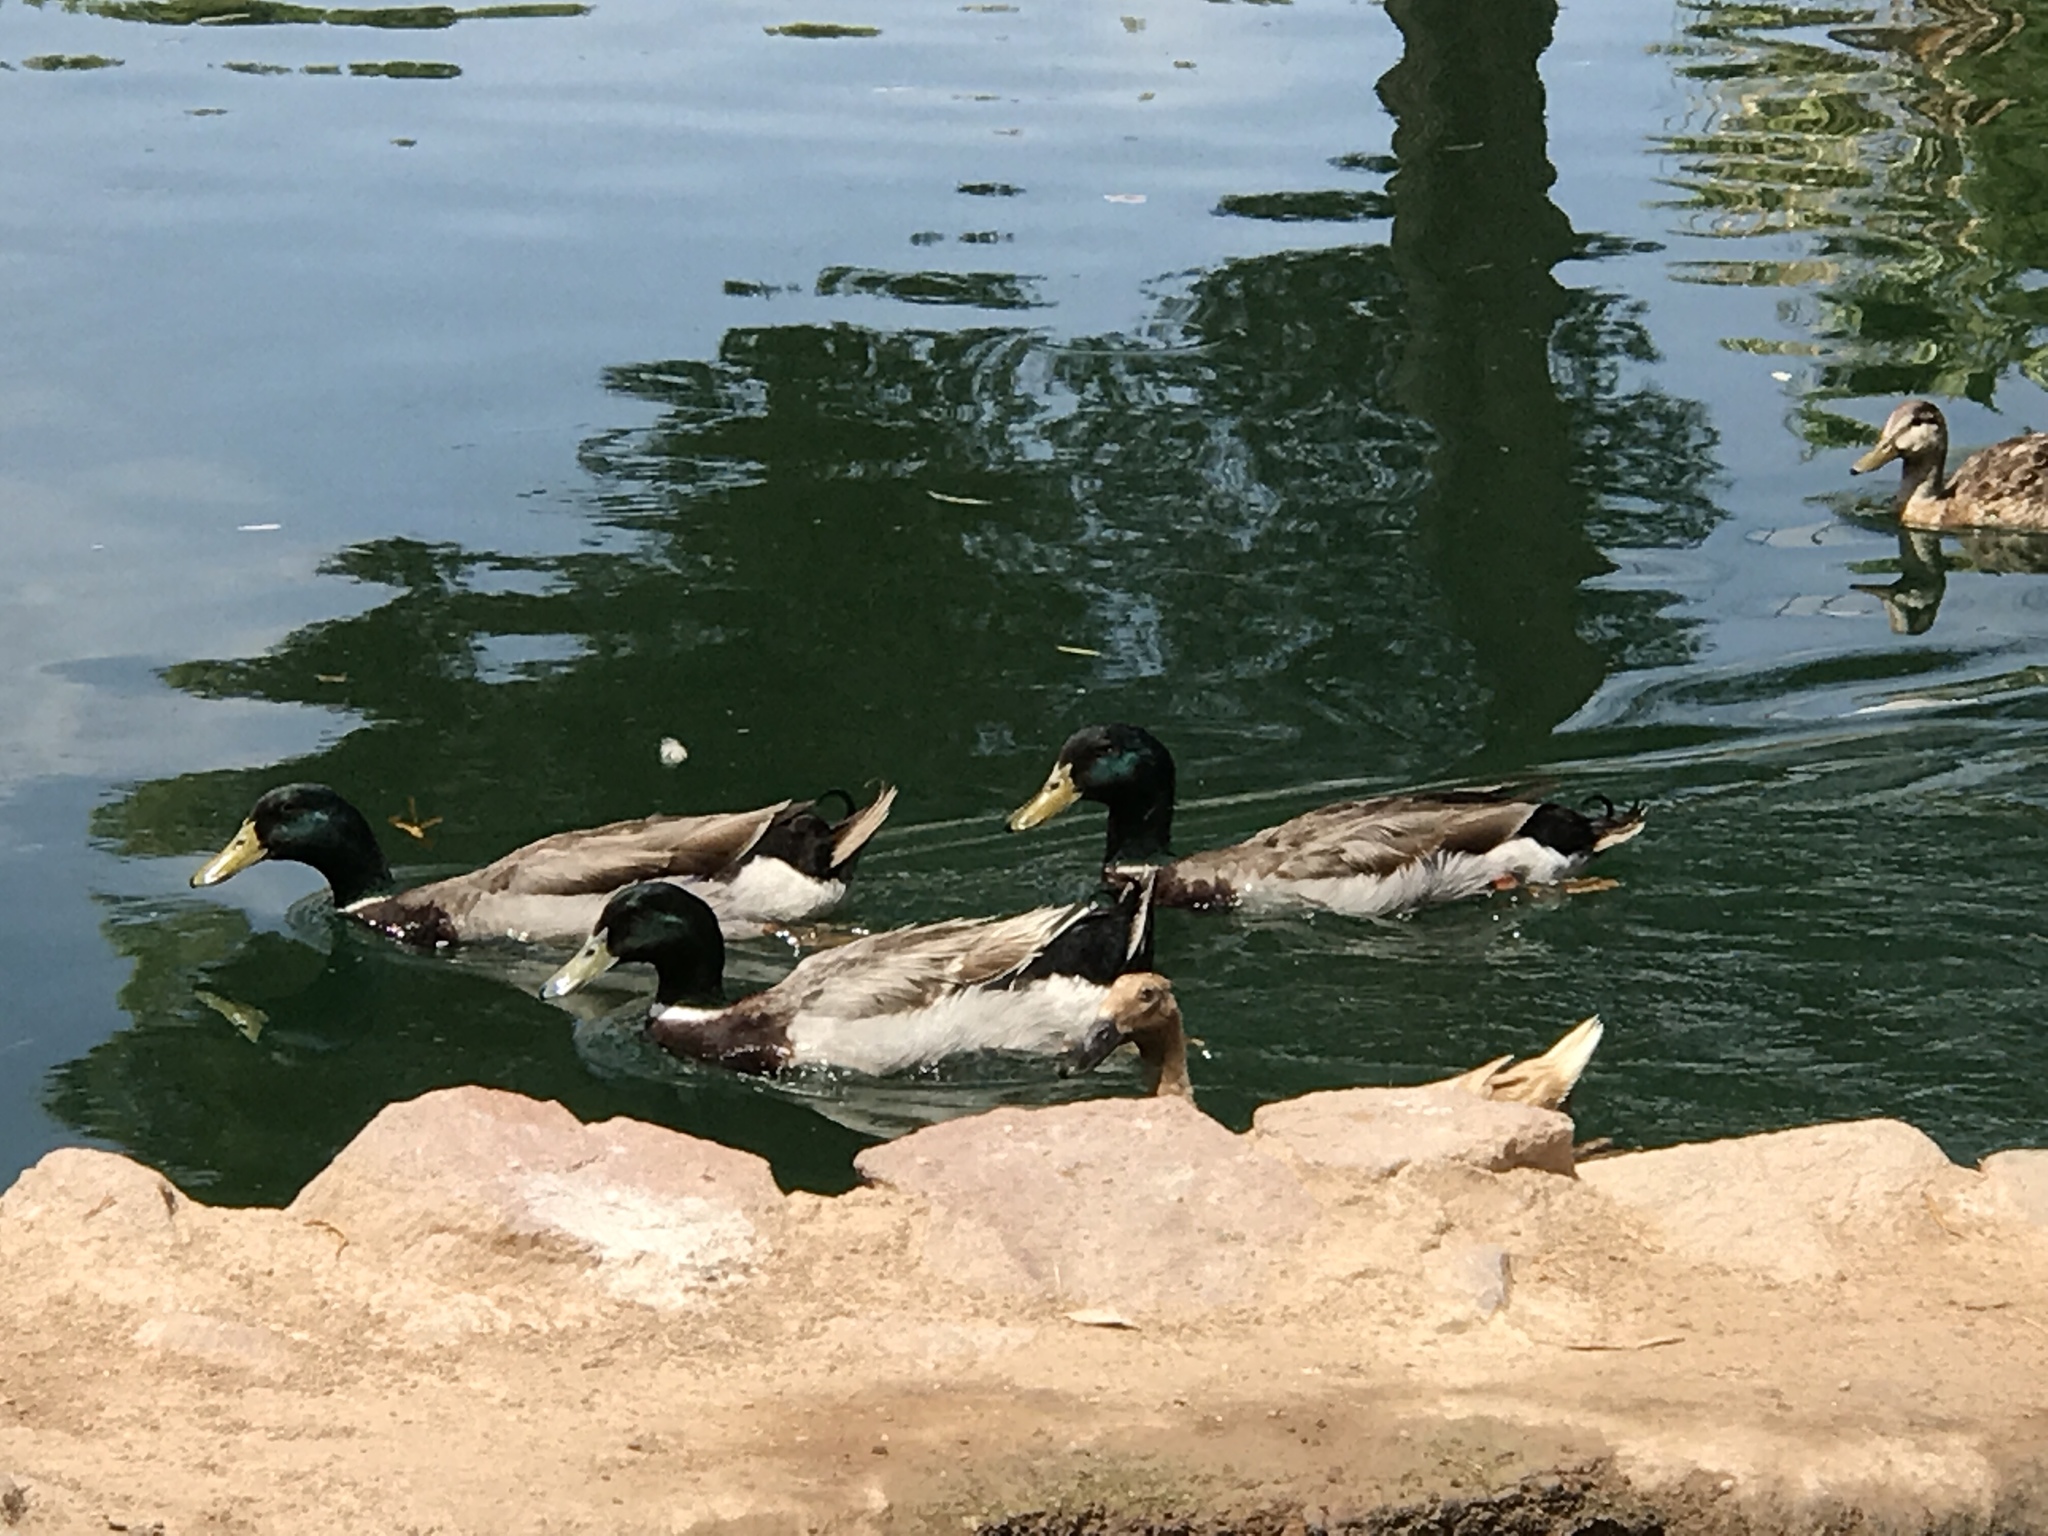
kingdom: Animalia
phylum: Chordata
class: Aves
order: Anseriformes
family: Anatidae
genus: Anas
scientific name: Anas platyrhynchos
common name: Mallard
